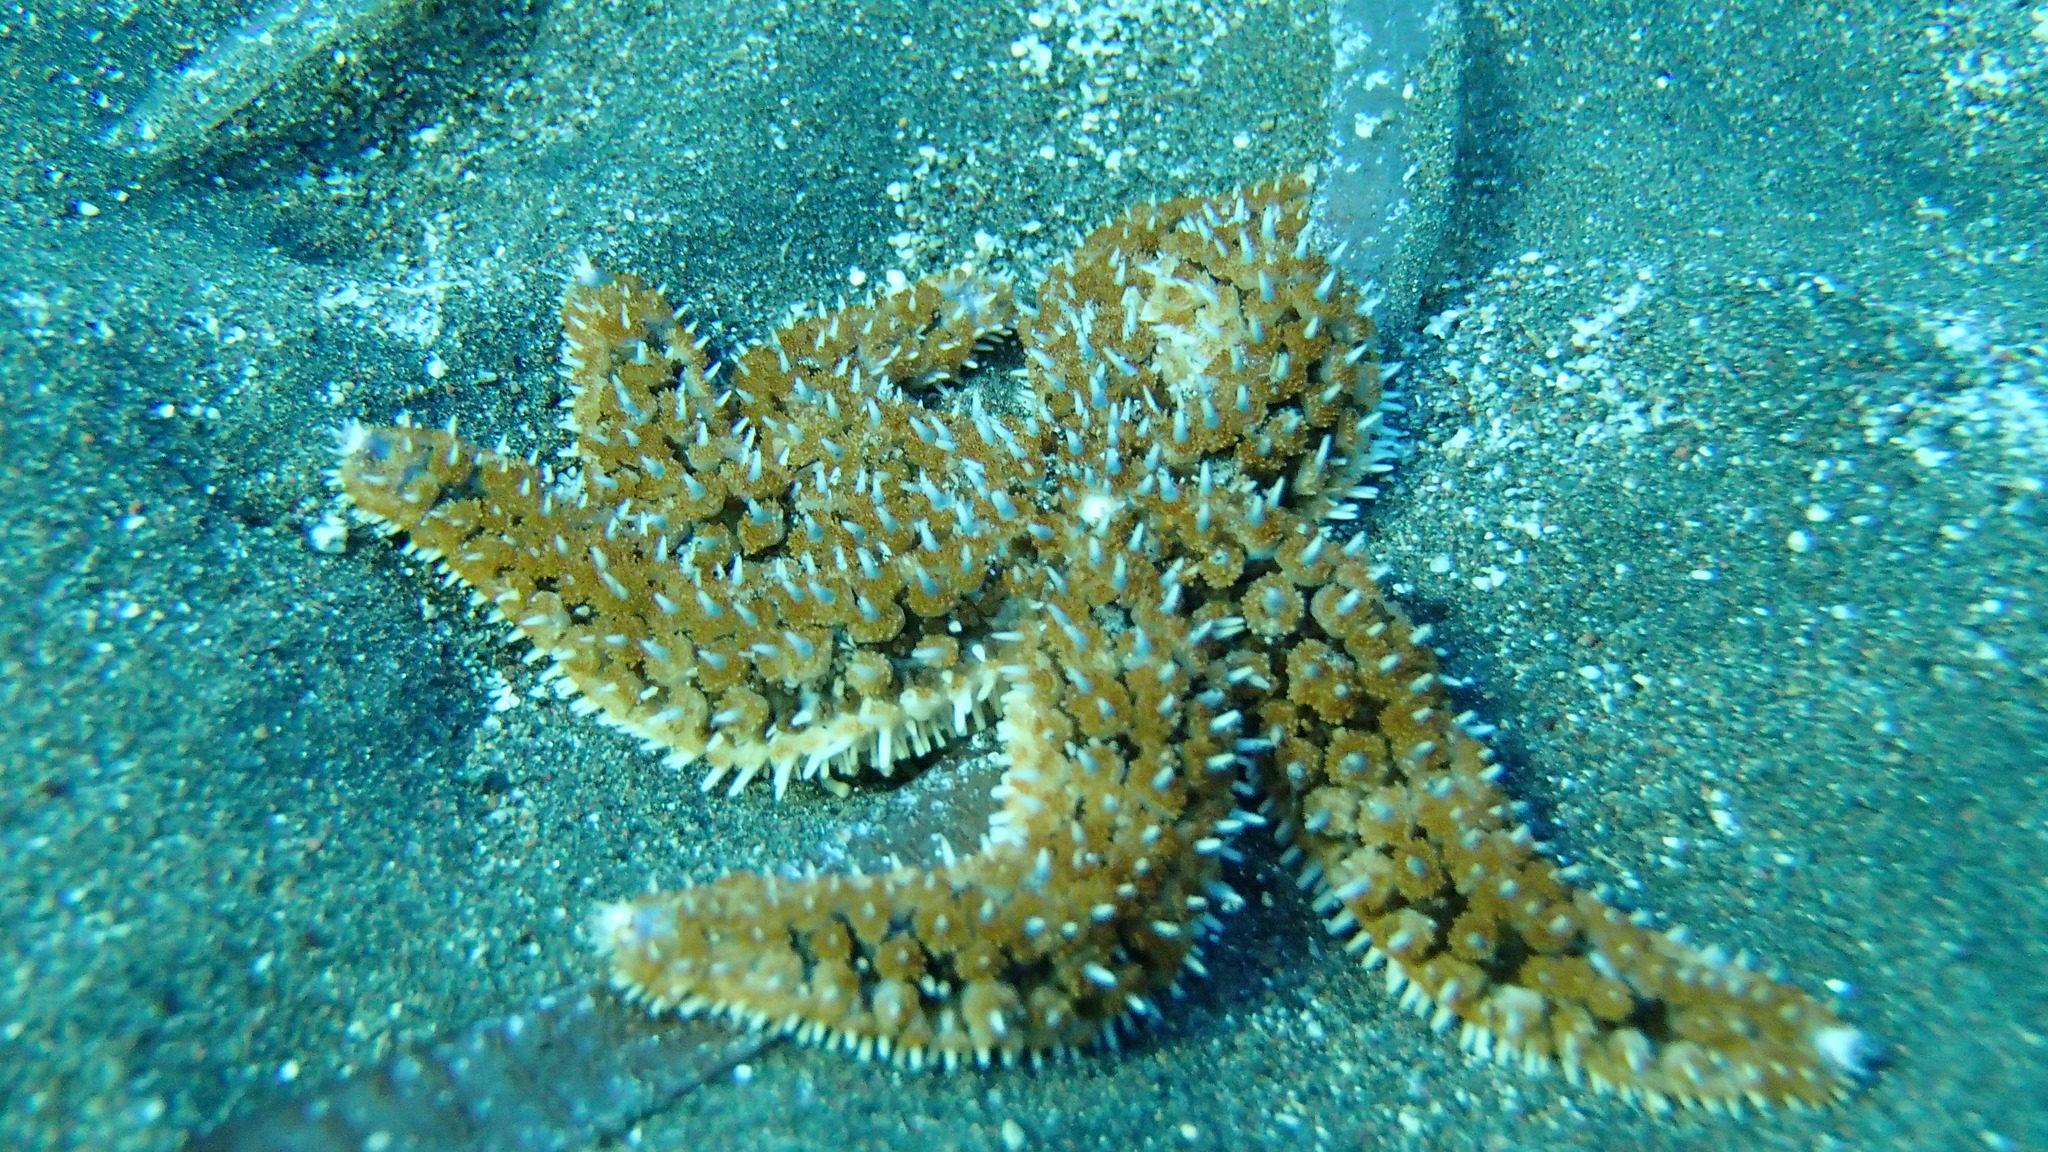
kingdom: Animalia
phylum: Echinodermata
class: Asteroidea
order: Forcipulatida
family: Asteriidae
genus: Coscinasterias
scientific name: Coscinasterias tenuispina
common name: Blue spiny starfish
